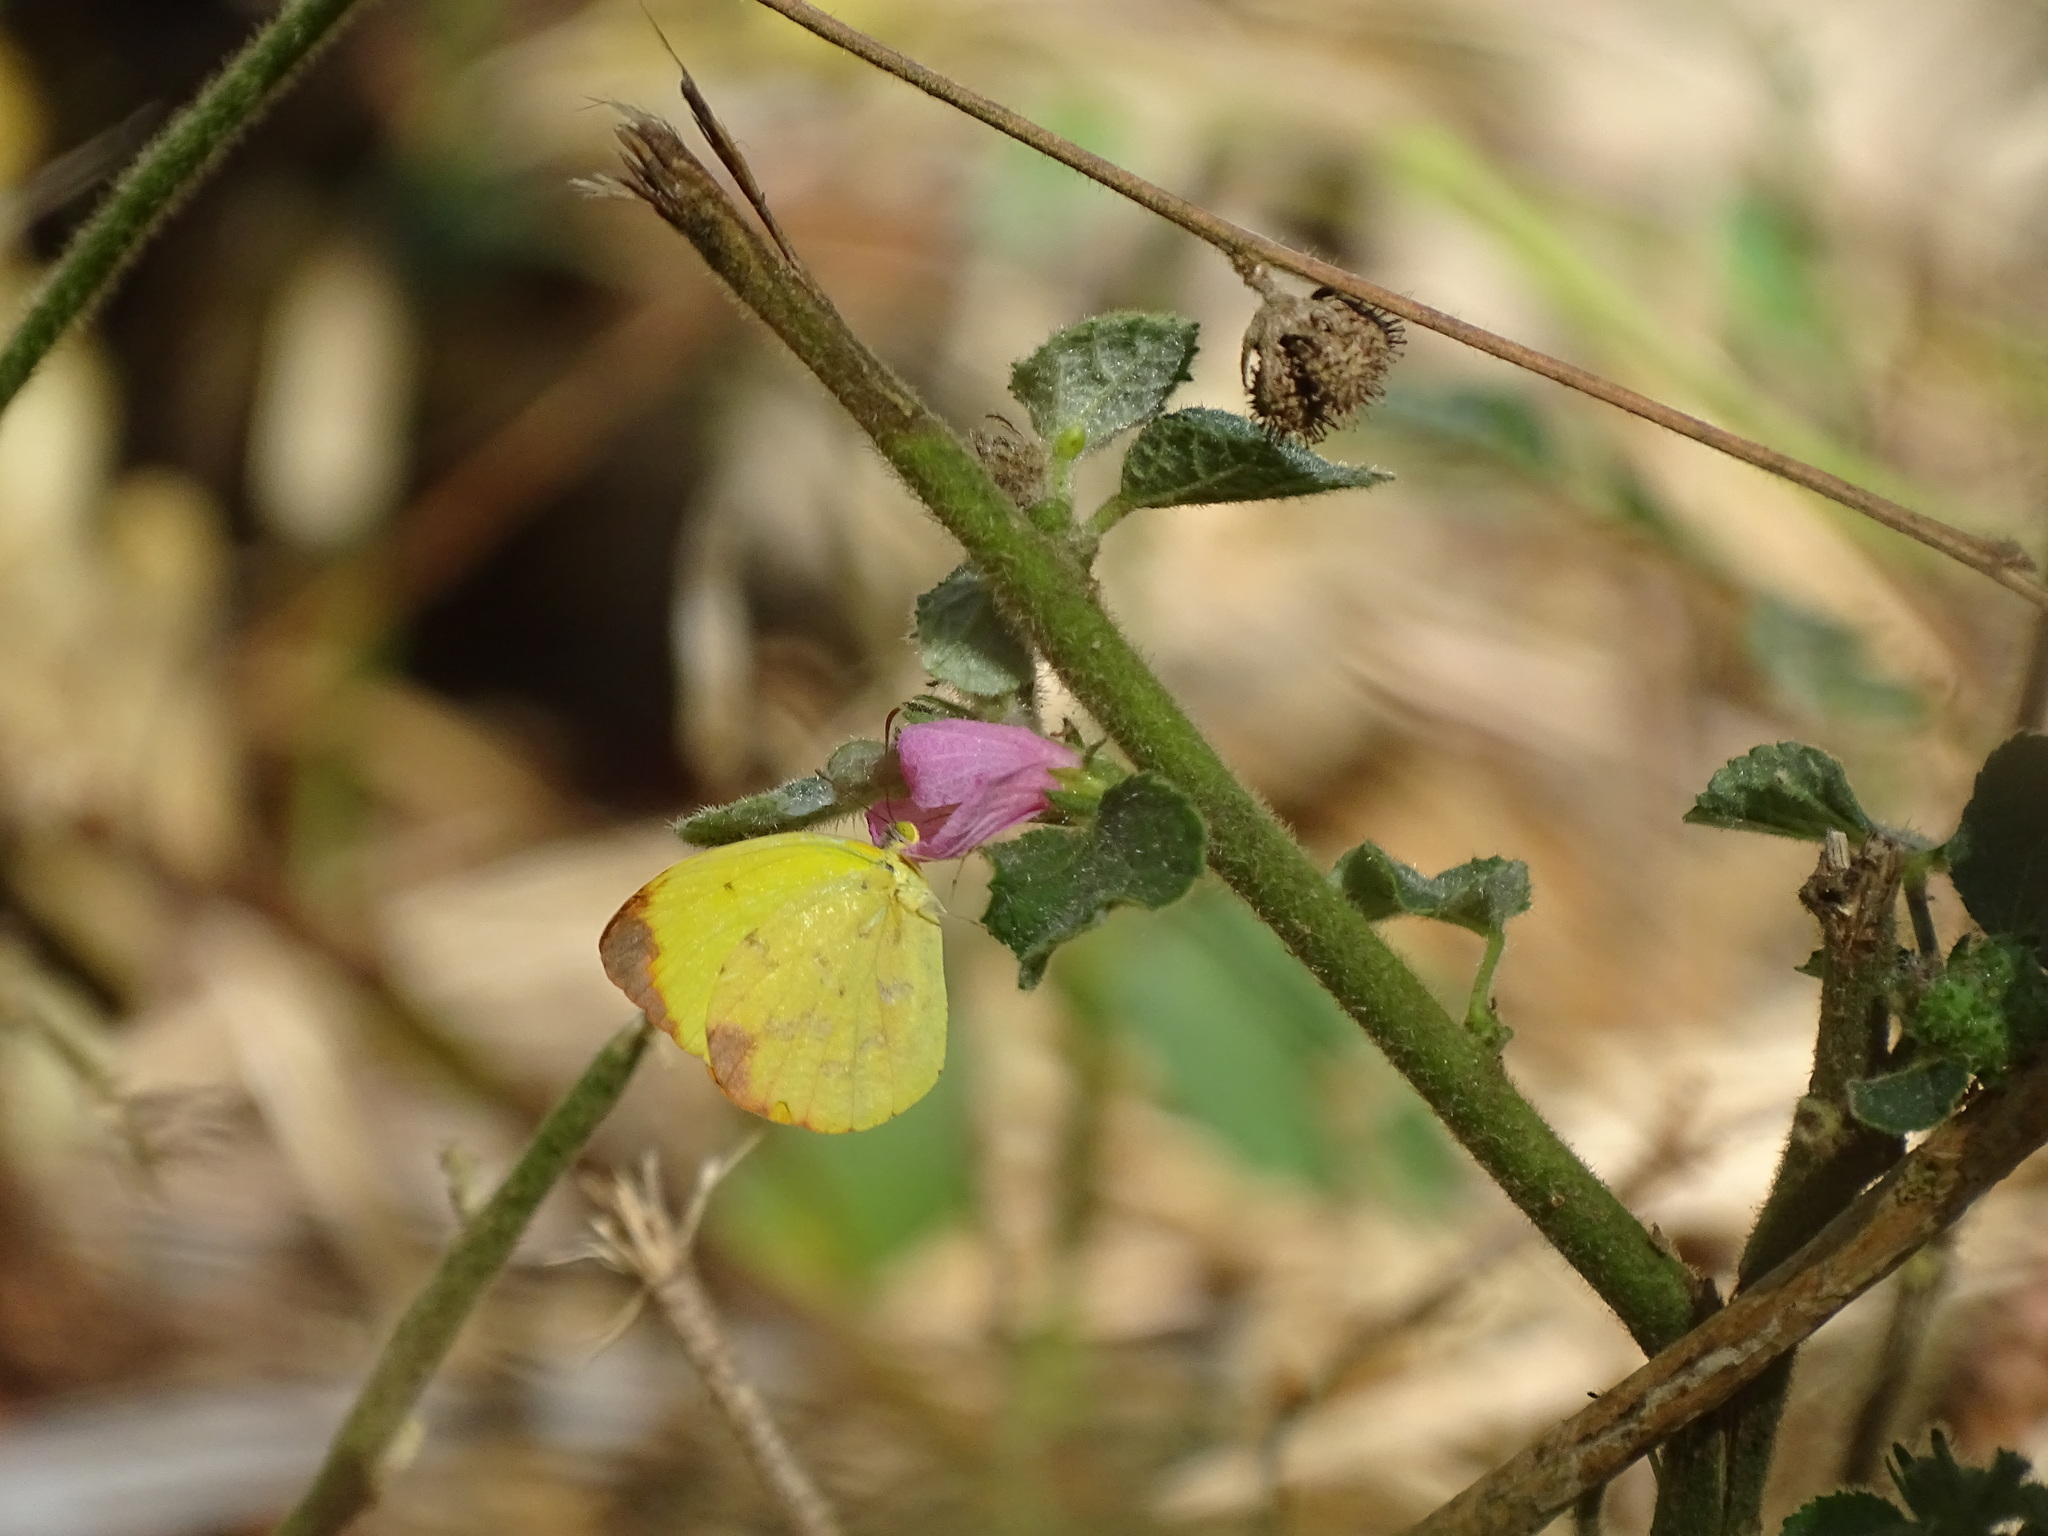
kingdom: Animalia
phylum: Arthropoda
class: Insecta
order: Lepidoptera
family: Pieridae
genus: Pyrisitia
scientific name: Pyrisitia dina
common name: Dina yellow
